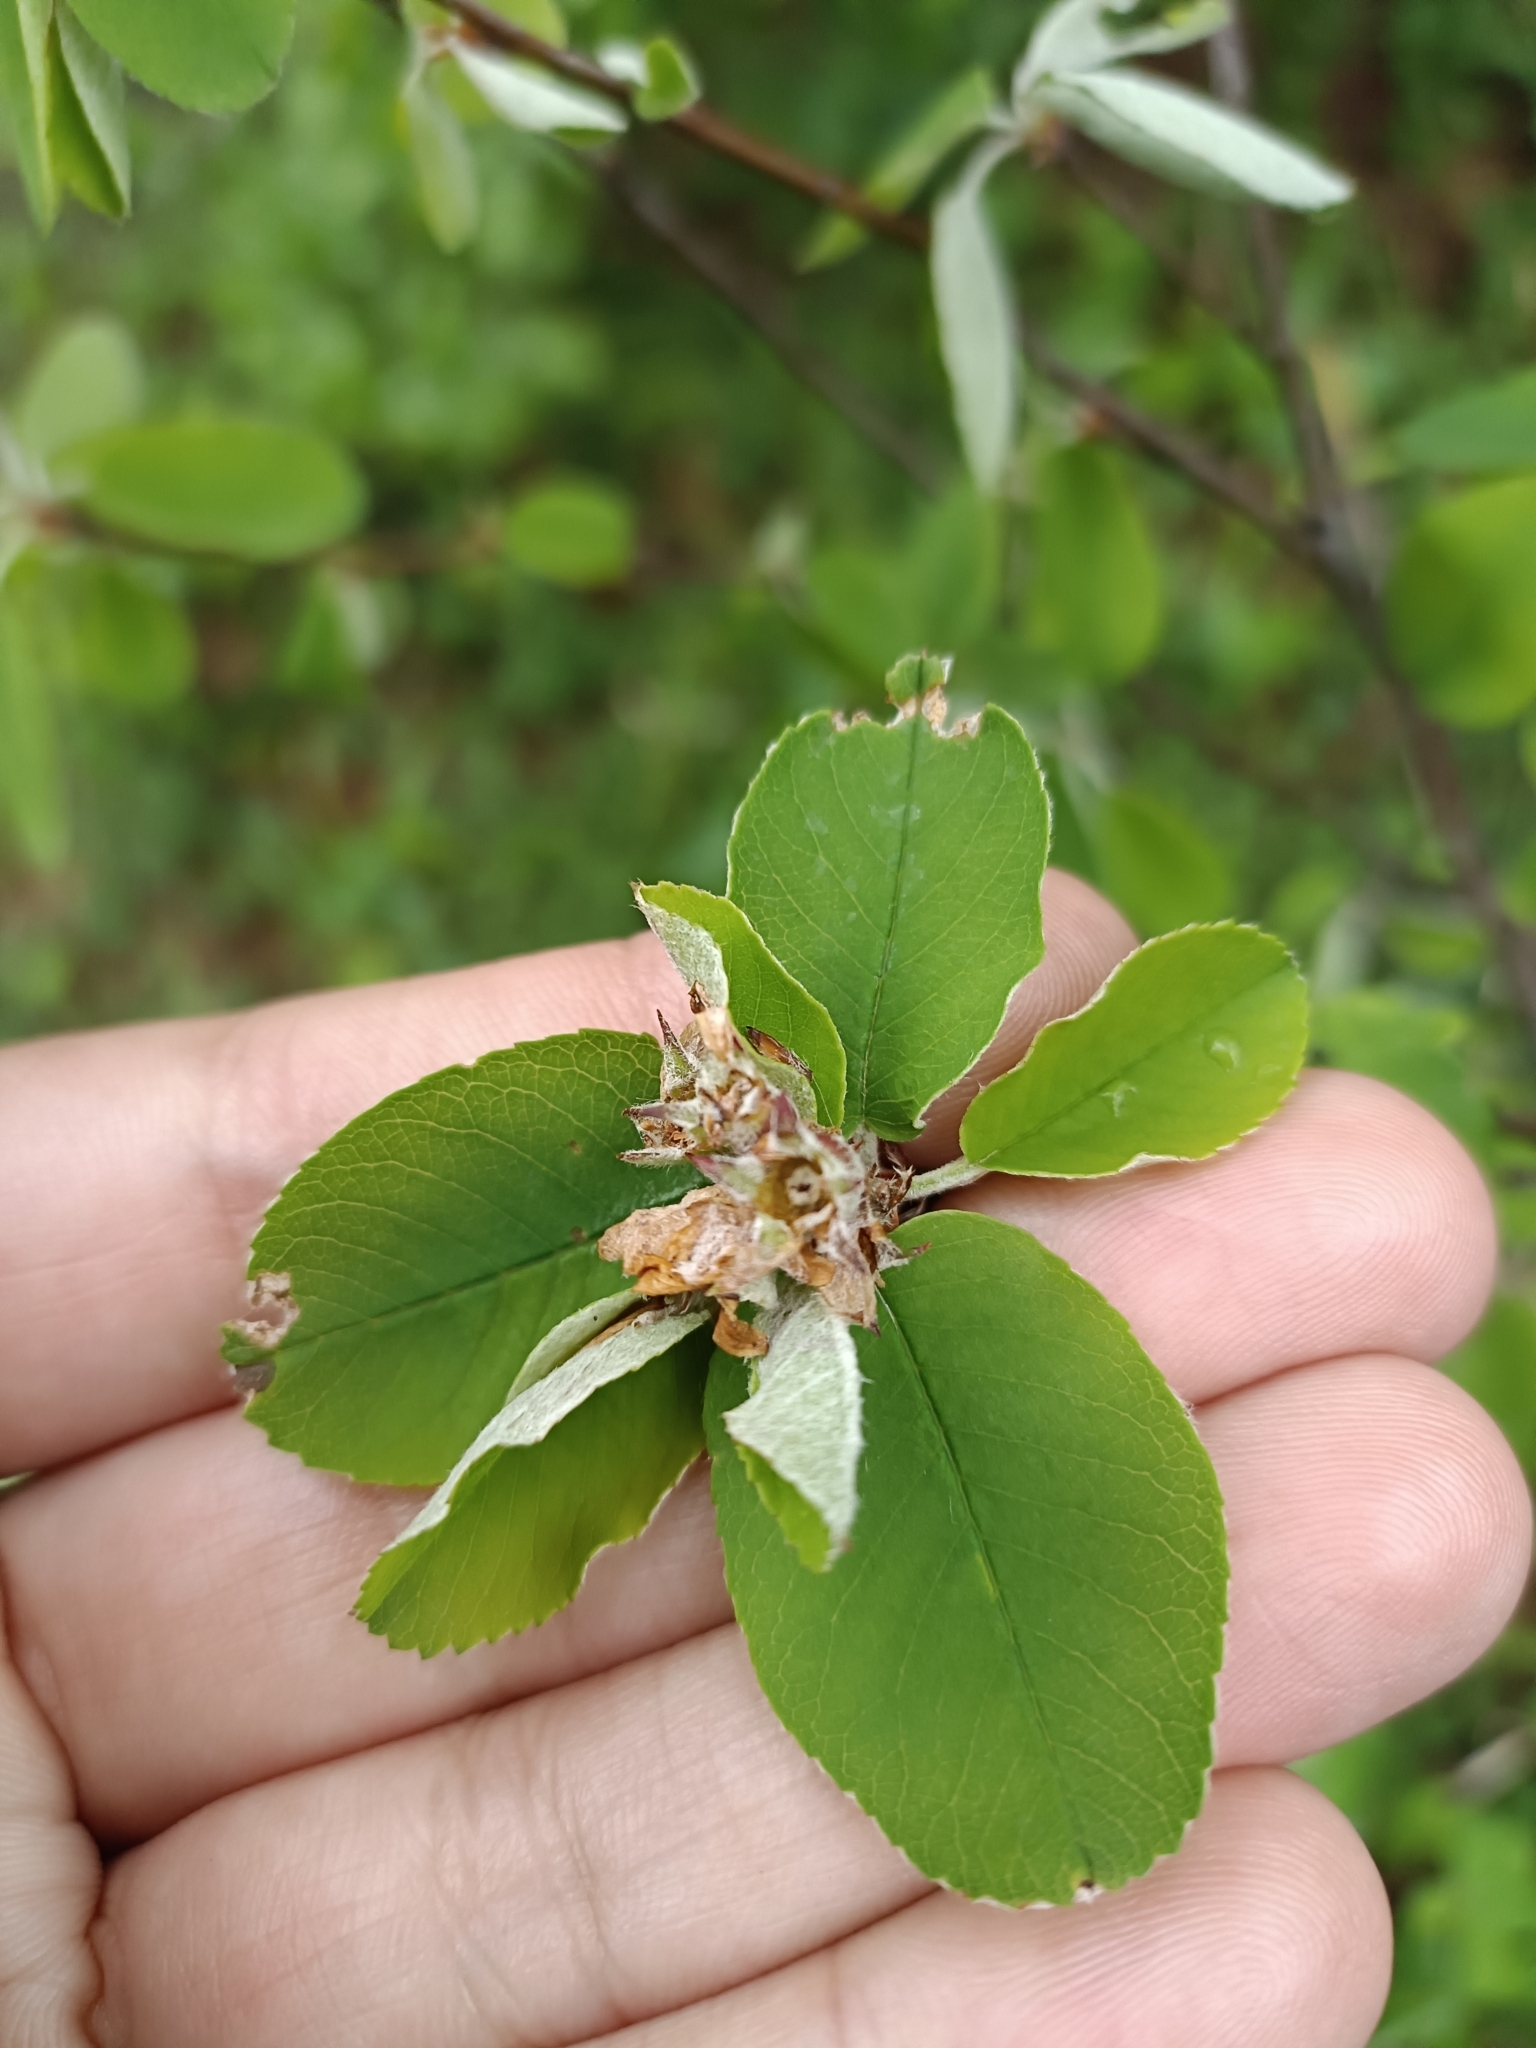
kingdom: Plantae
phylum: Tracheophyta
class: Magnoliopsida
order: Rosales
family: Rosaceae
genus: Amelanchier
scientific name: Amelanchier ovalis
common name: Serviceberry
